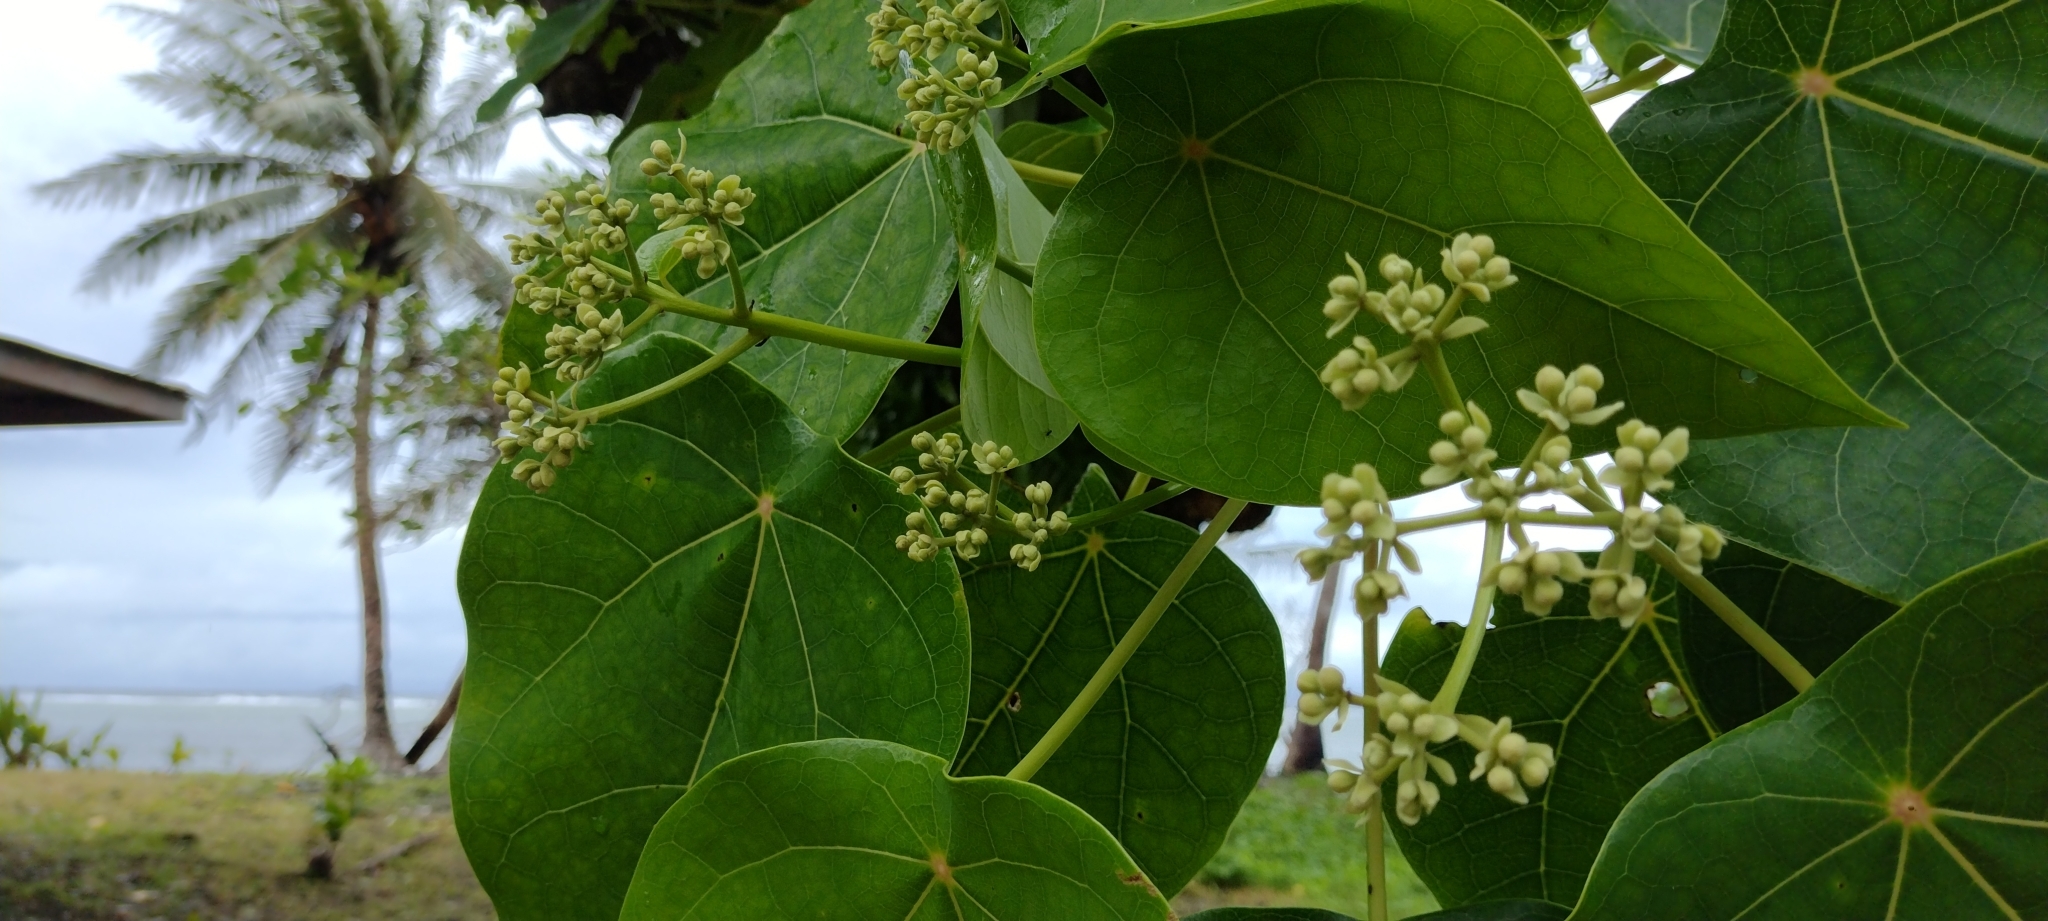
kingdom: Plantae
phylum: Tracheophyta
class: Magnoliopsida
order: Laurales
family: Hernandiaceae
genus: Hernandia
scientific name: Hernandia nymphaeifolia
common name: Sea hearse
